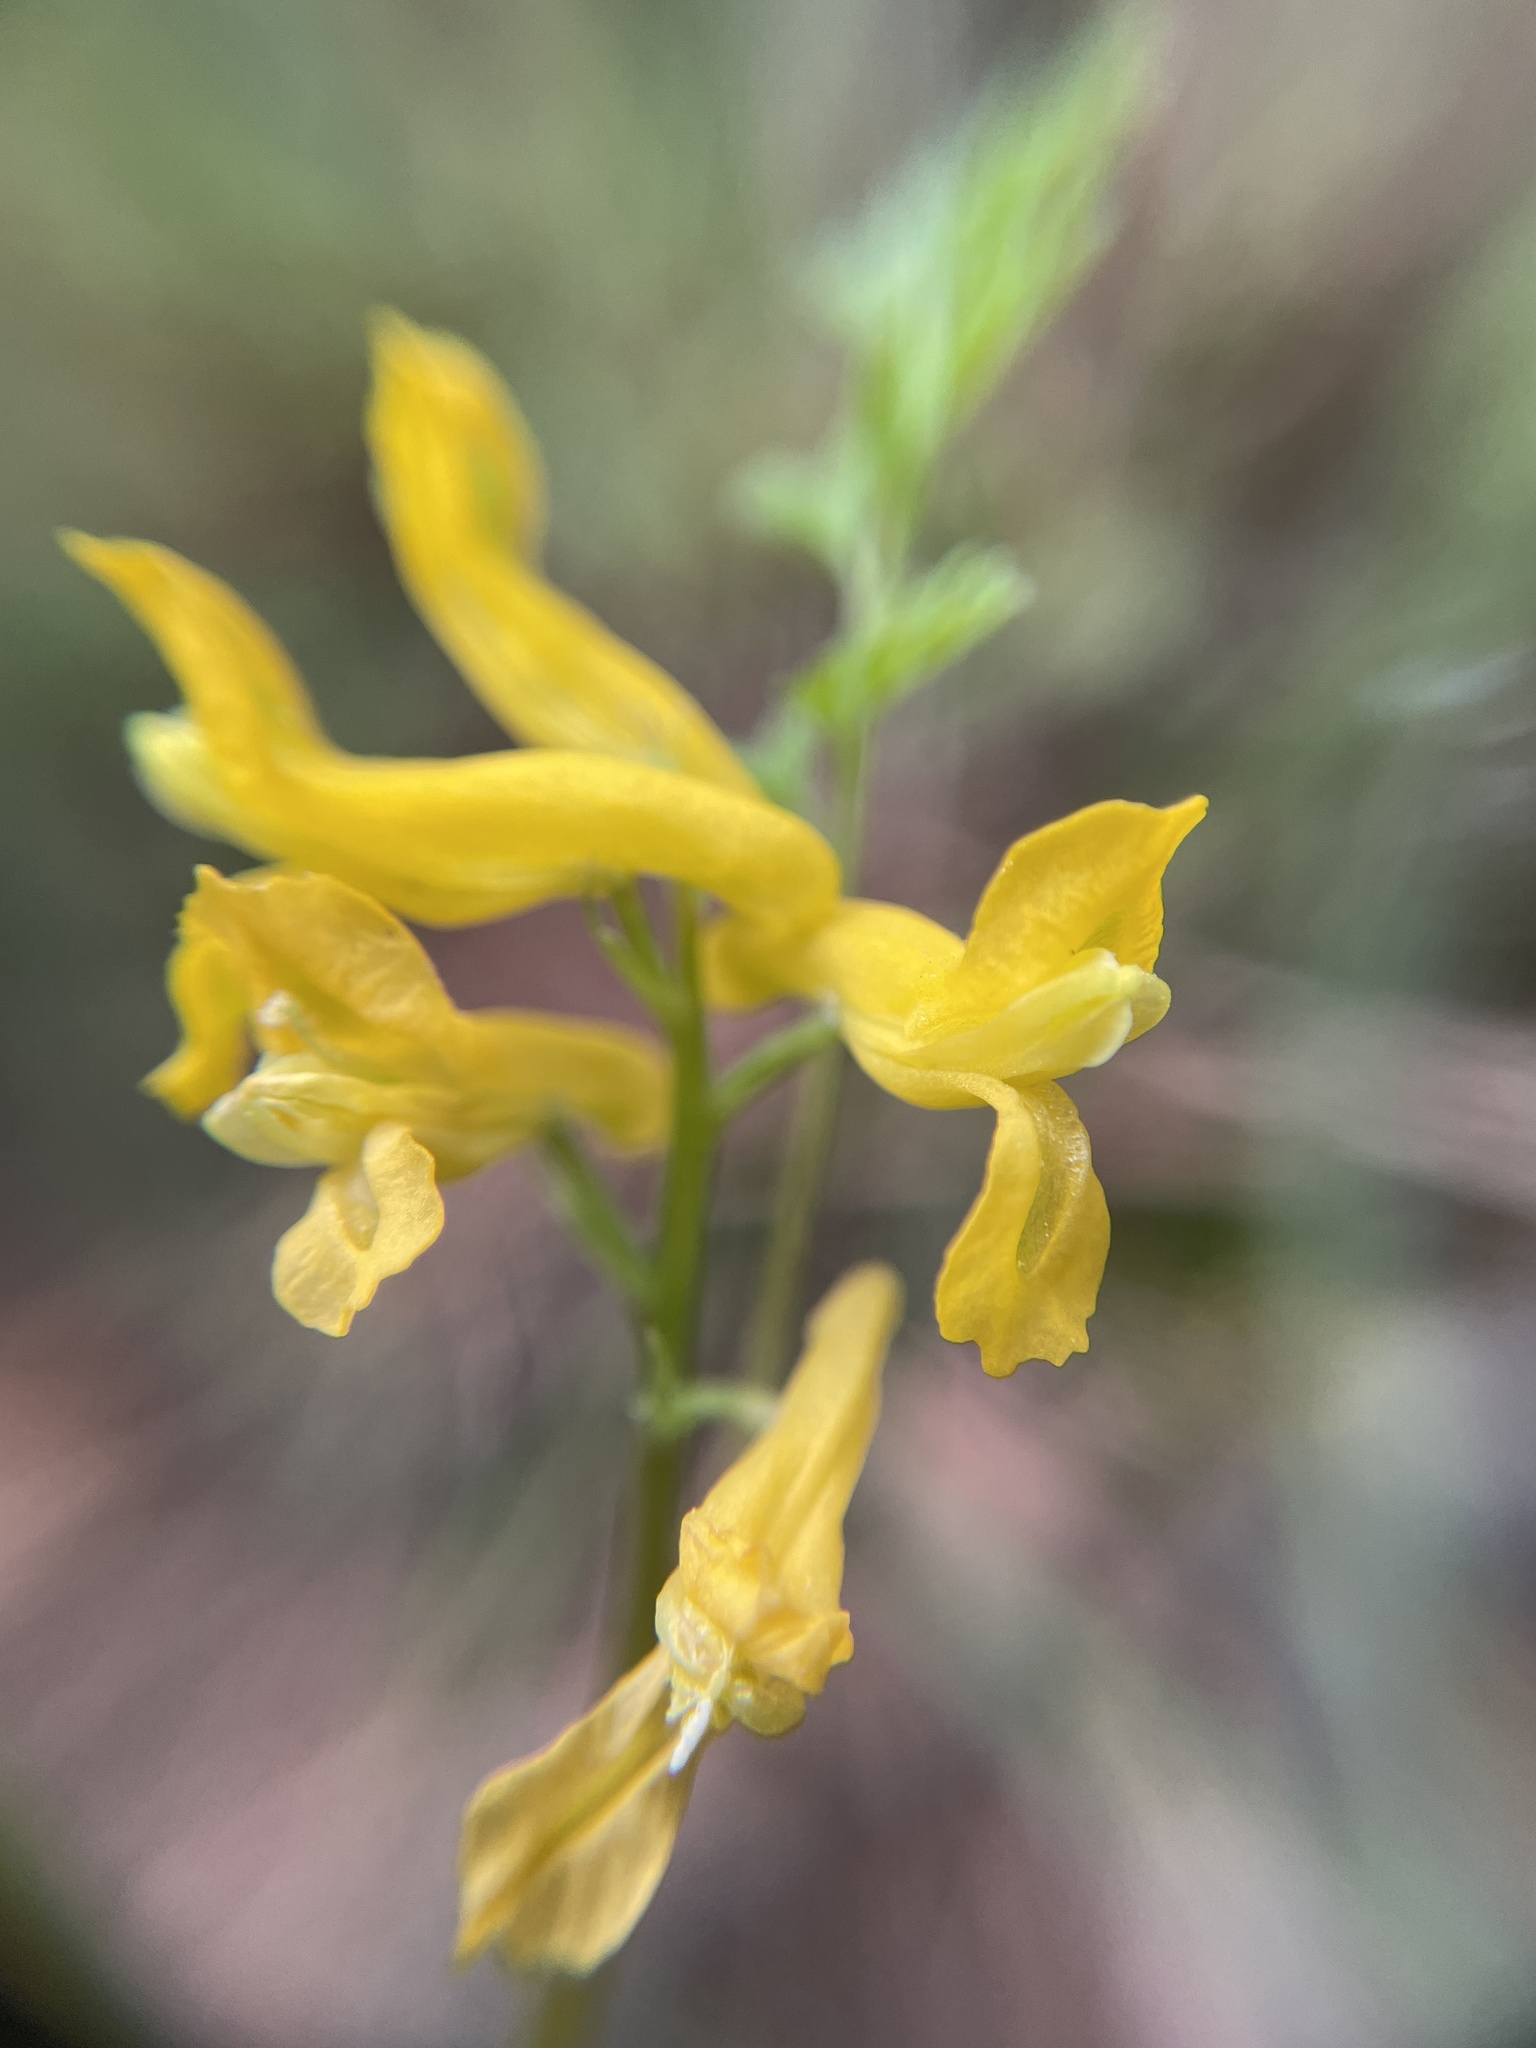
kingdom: Plantae
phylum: Tracheophyta
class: Magnoliopsida
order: Ranunculales
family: Papaveraceae
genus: Corydalis
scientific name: Corydalis aurea
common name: Golden corydalis
